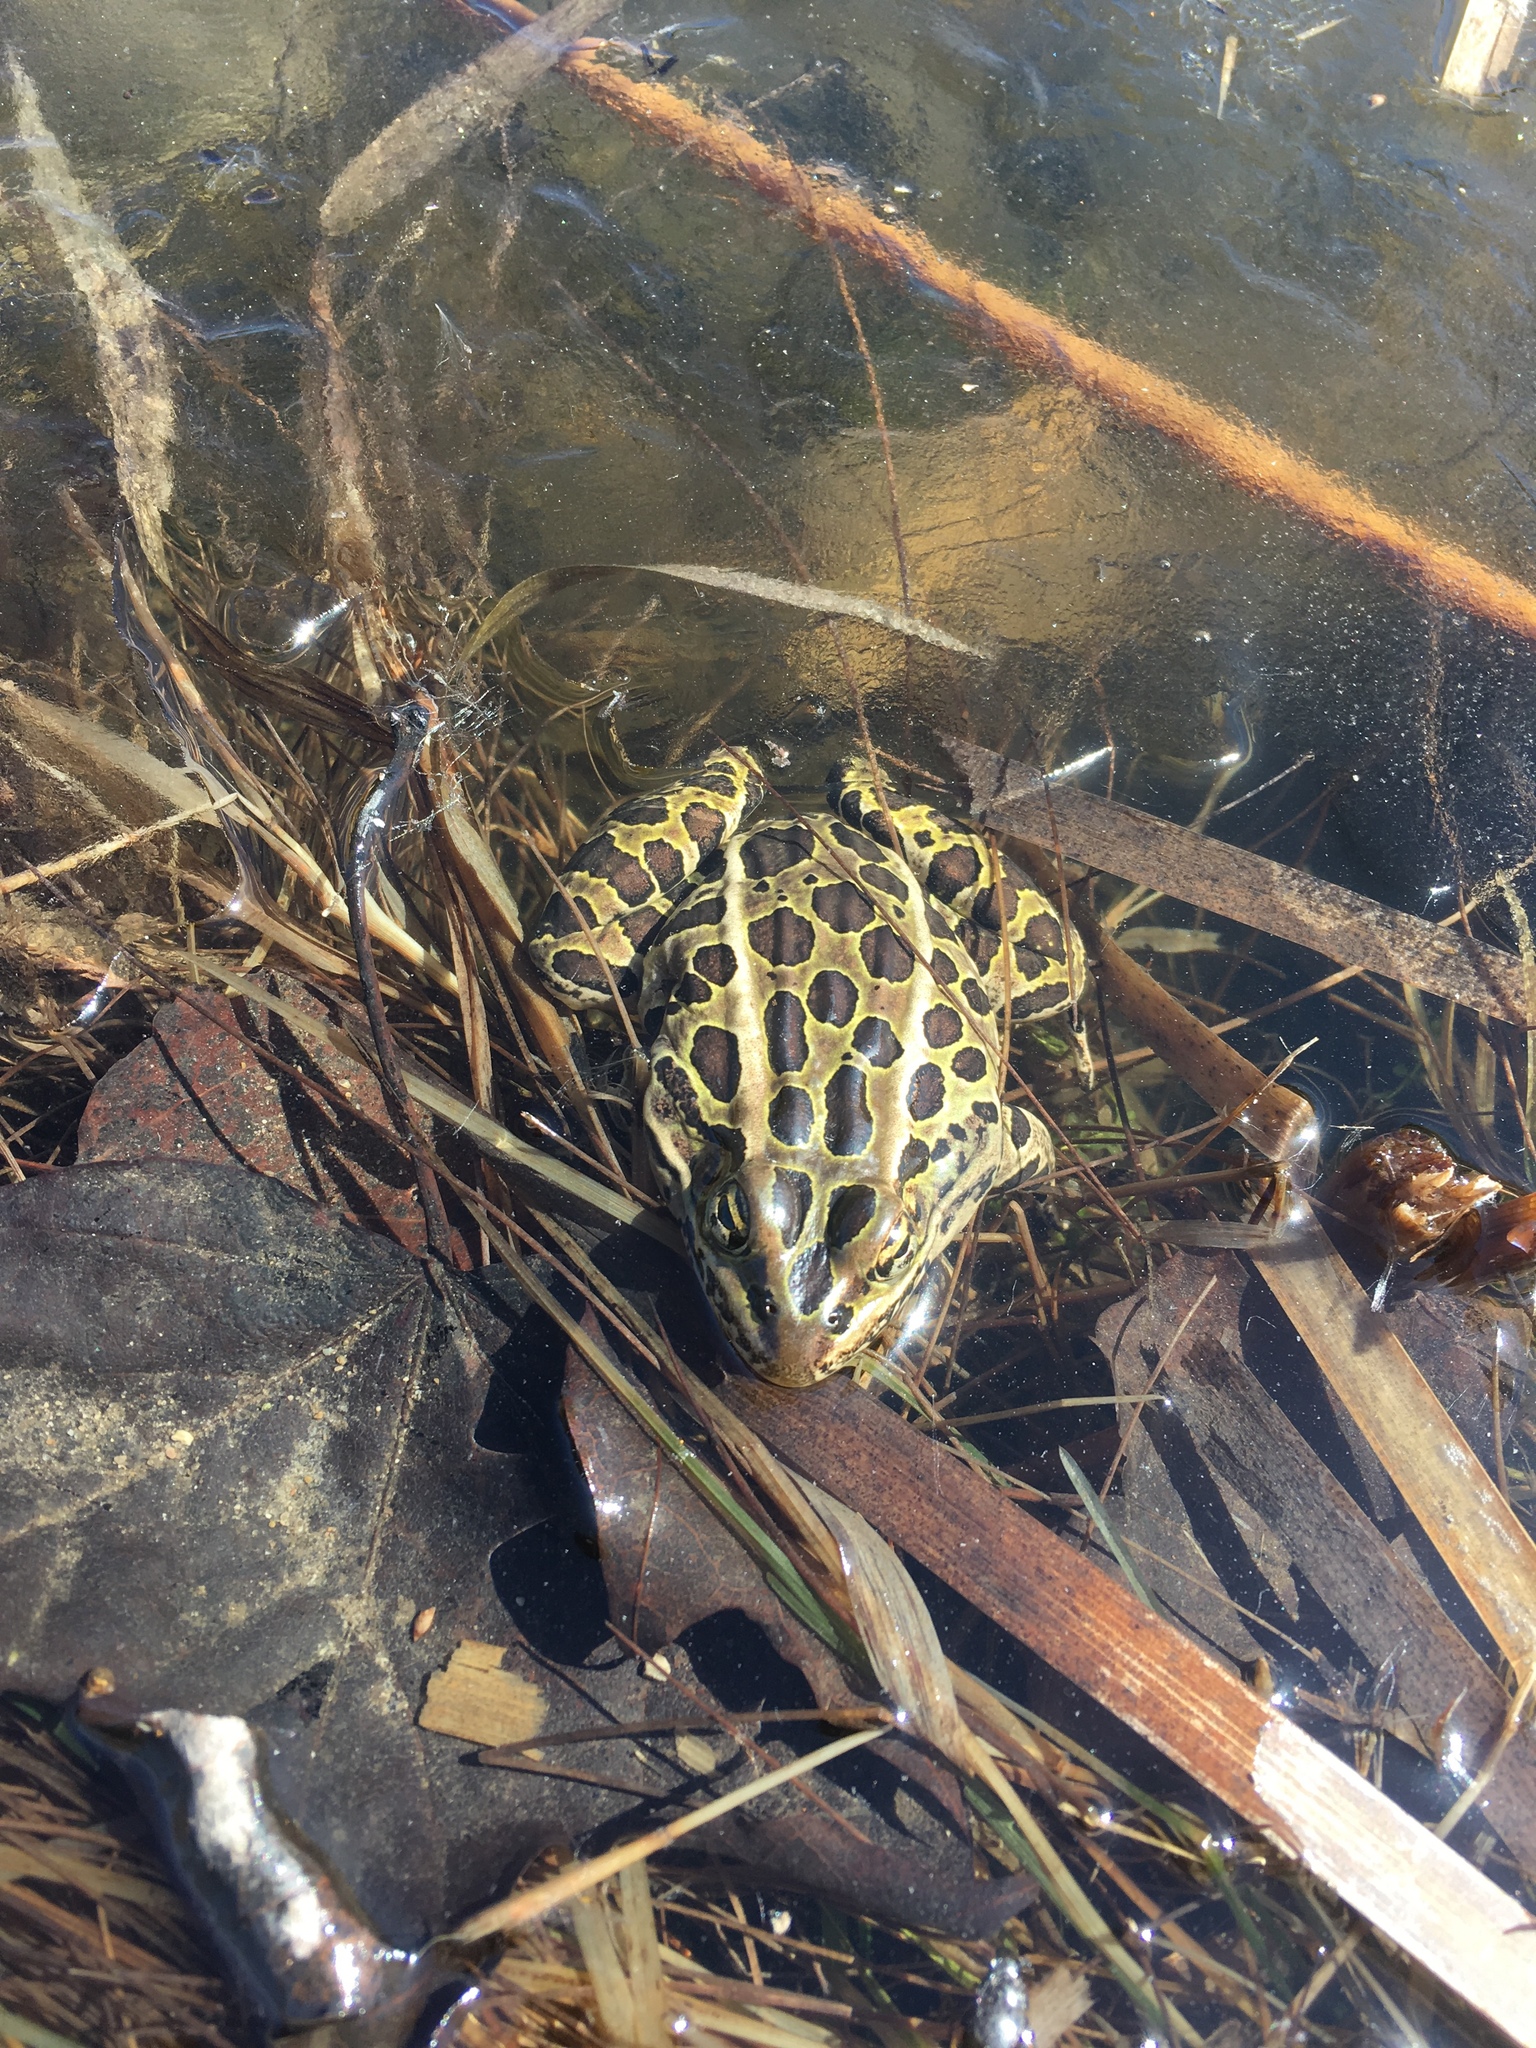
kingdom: Animalia
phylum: Chordata
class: Amphibia
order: Anura
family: Ranidae
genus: Lithobates
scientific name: Lithobates pipiens
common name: Northern leopard frog
